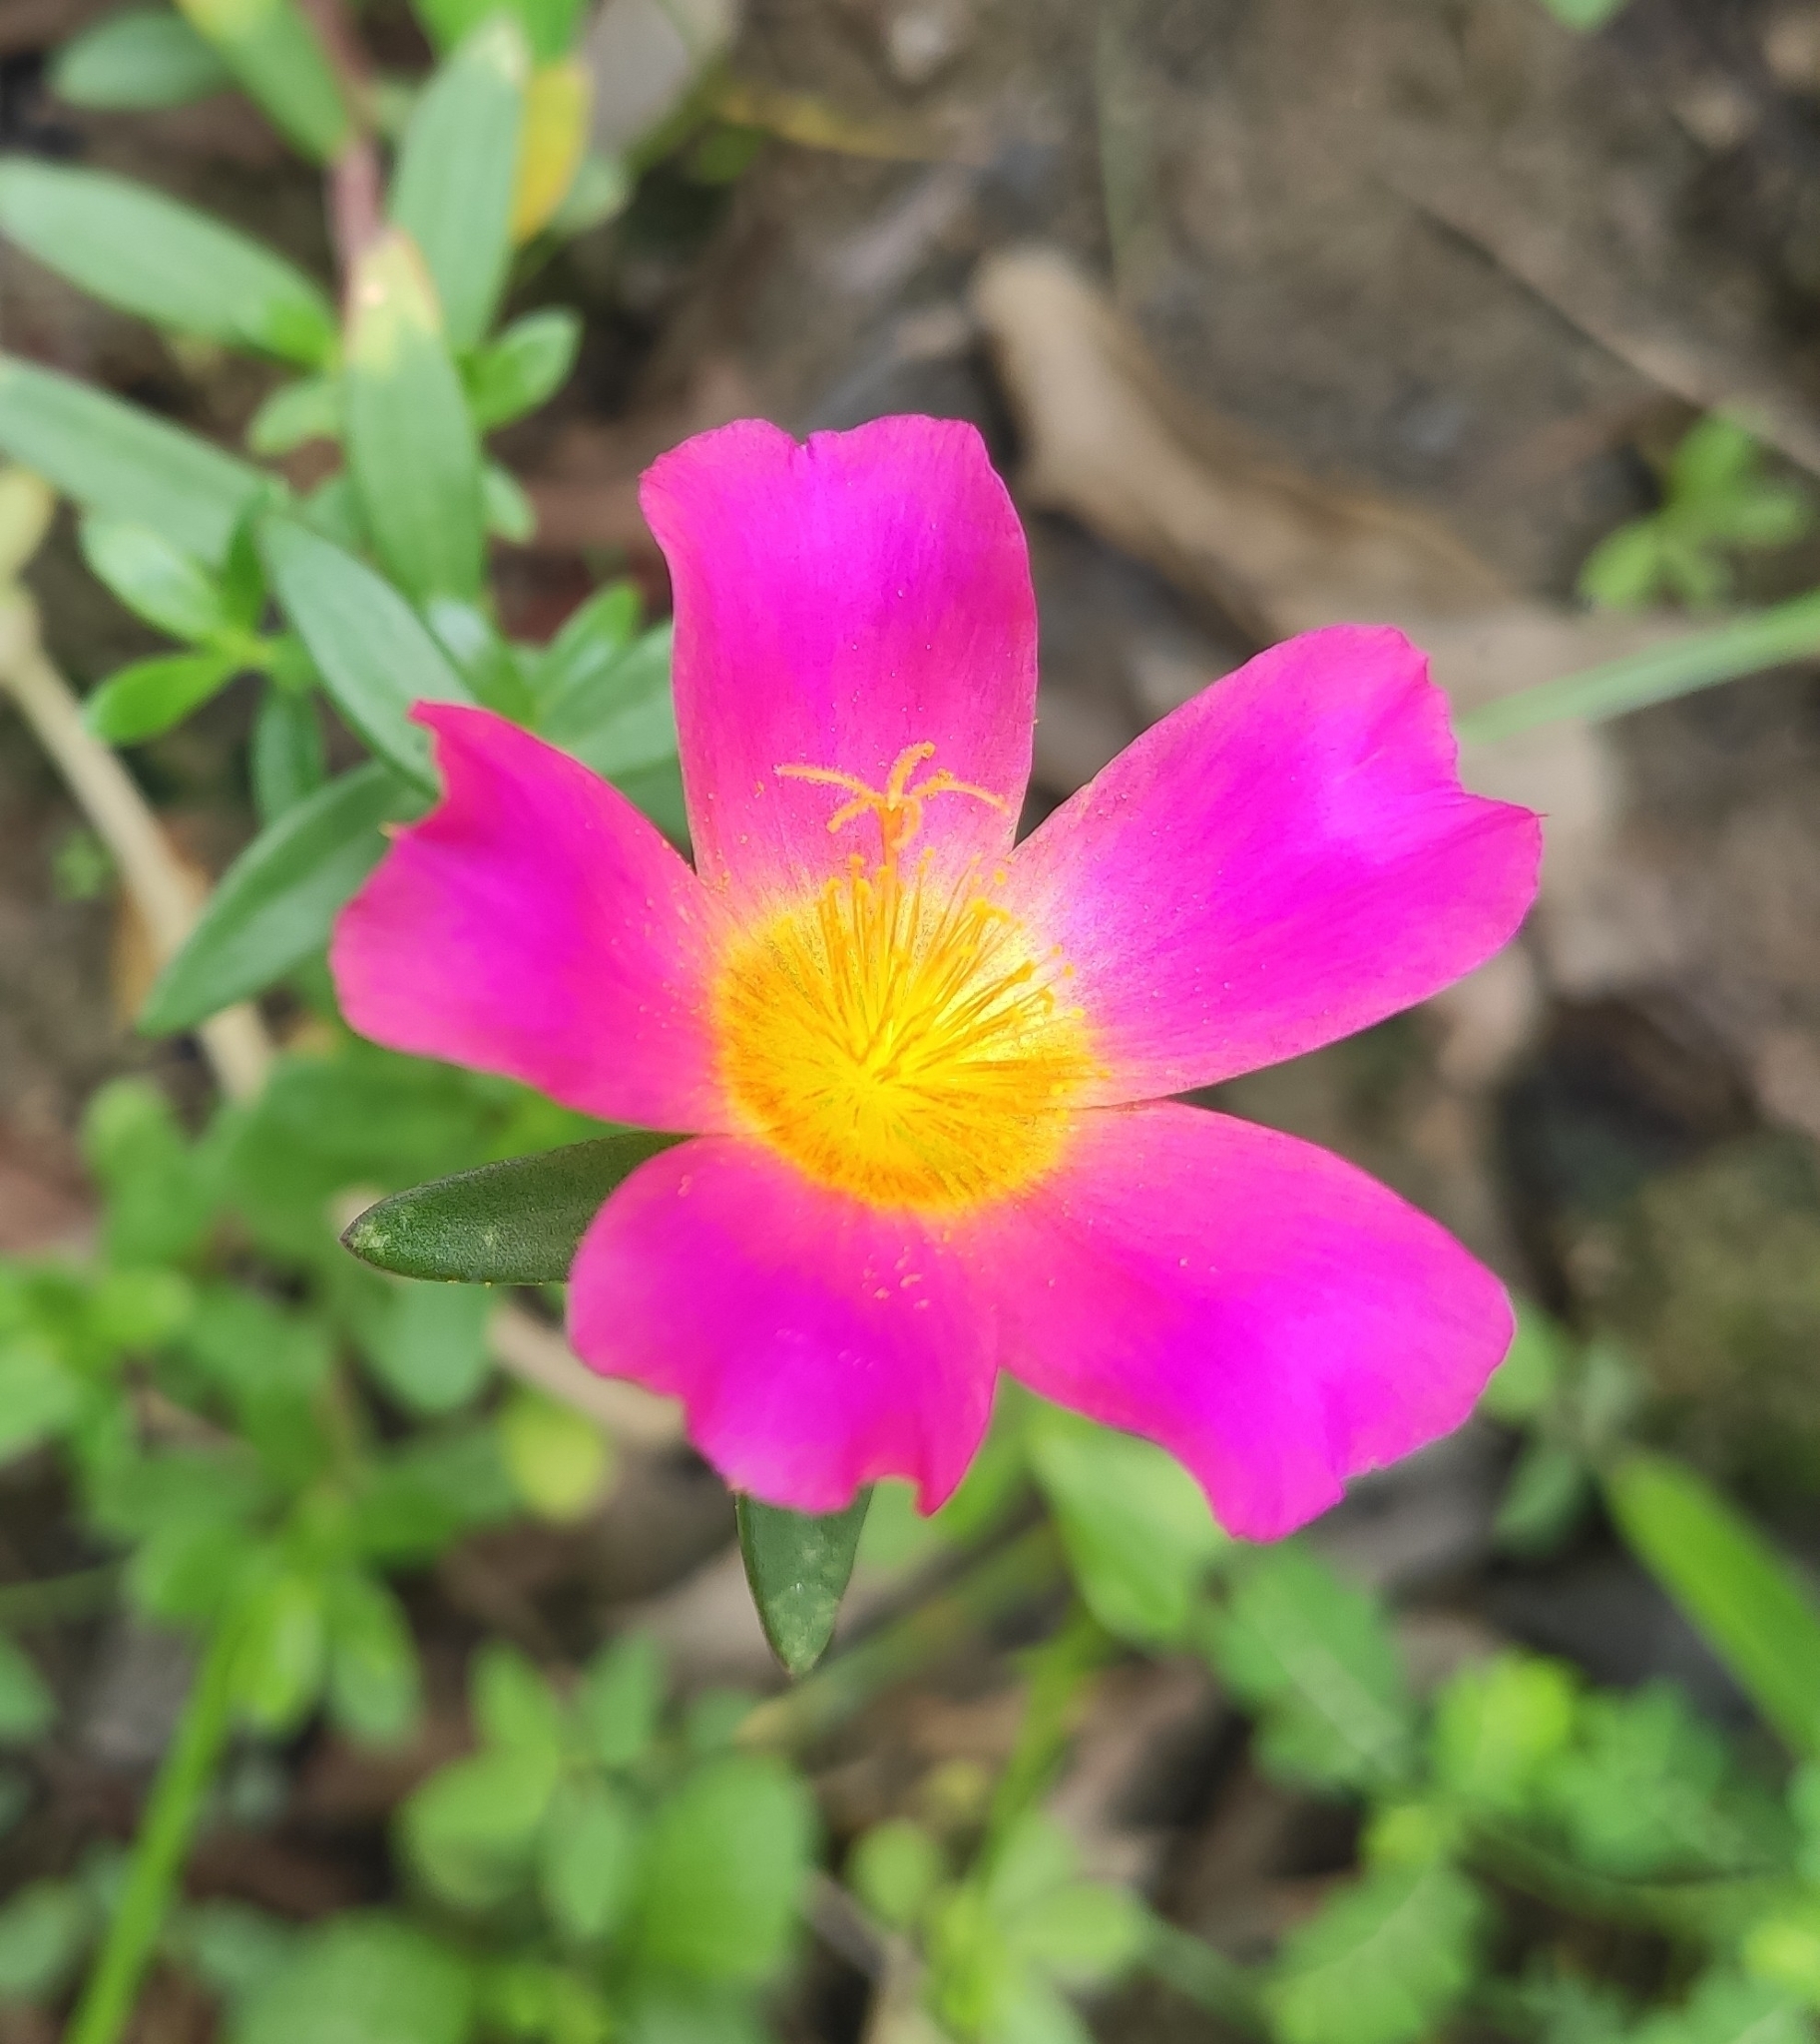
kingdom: Plantae
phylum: Tracheophyta
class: Magnoliopsida
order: Caryophyllales
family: Portulacaceae
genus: Portulaca
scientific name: Portulaca umbraticola
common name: Wingpod purslane
